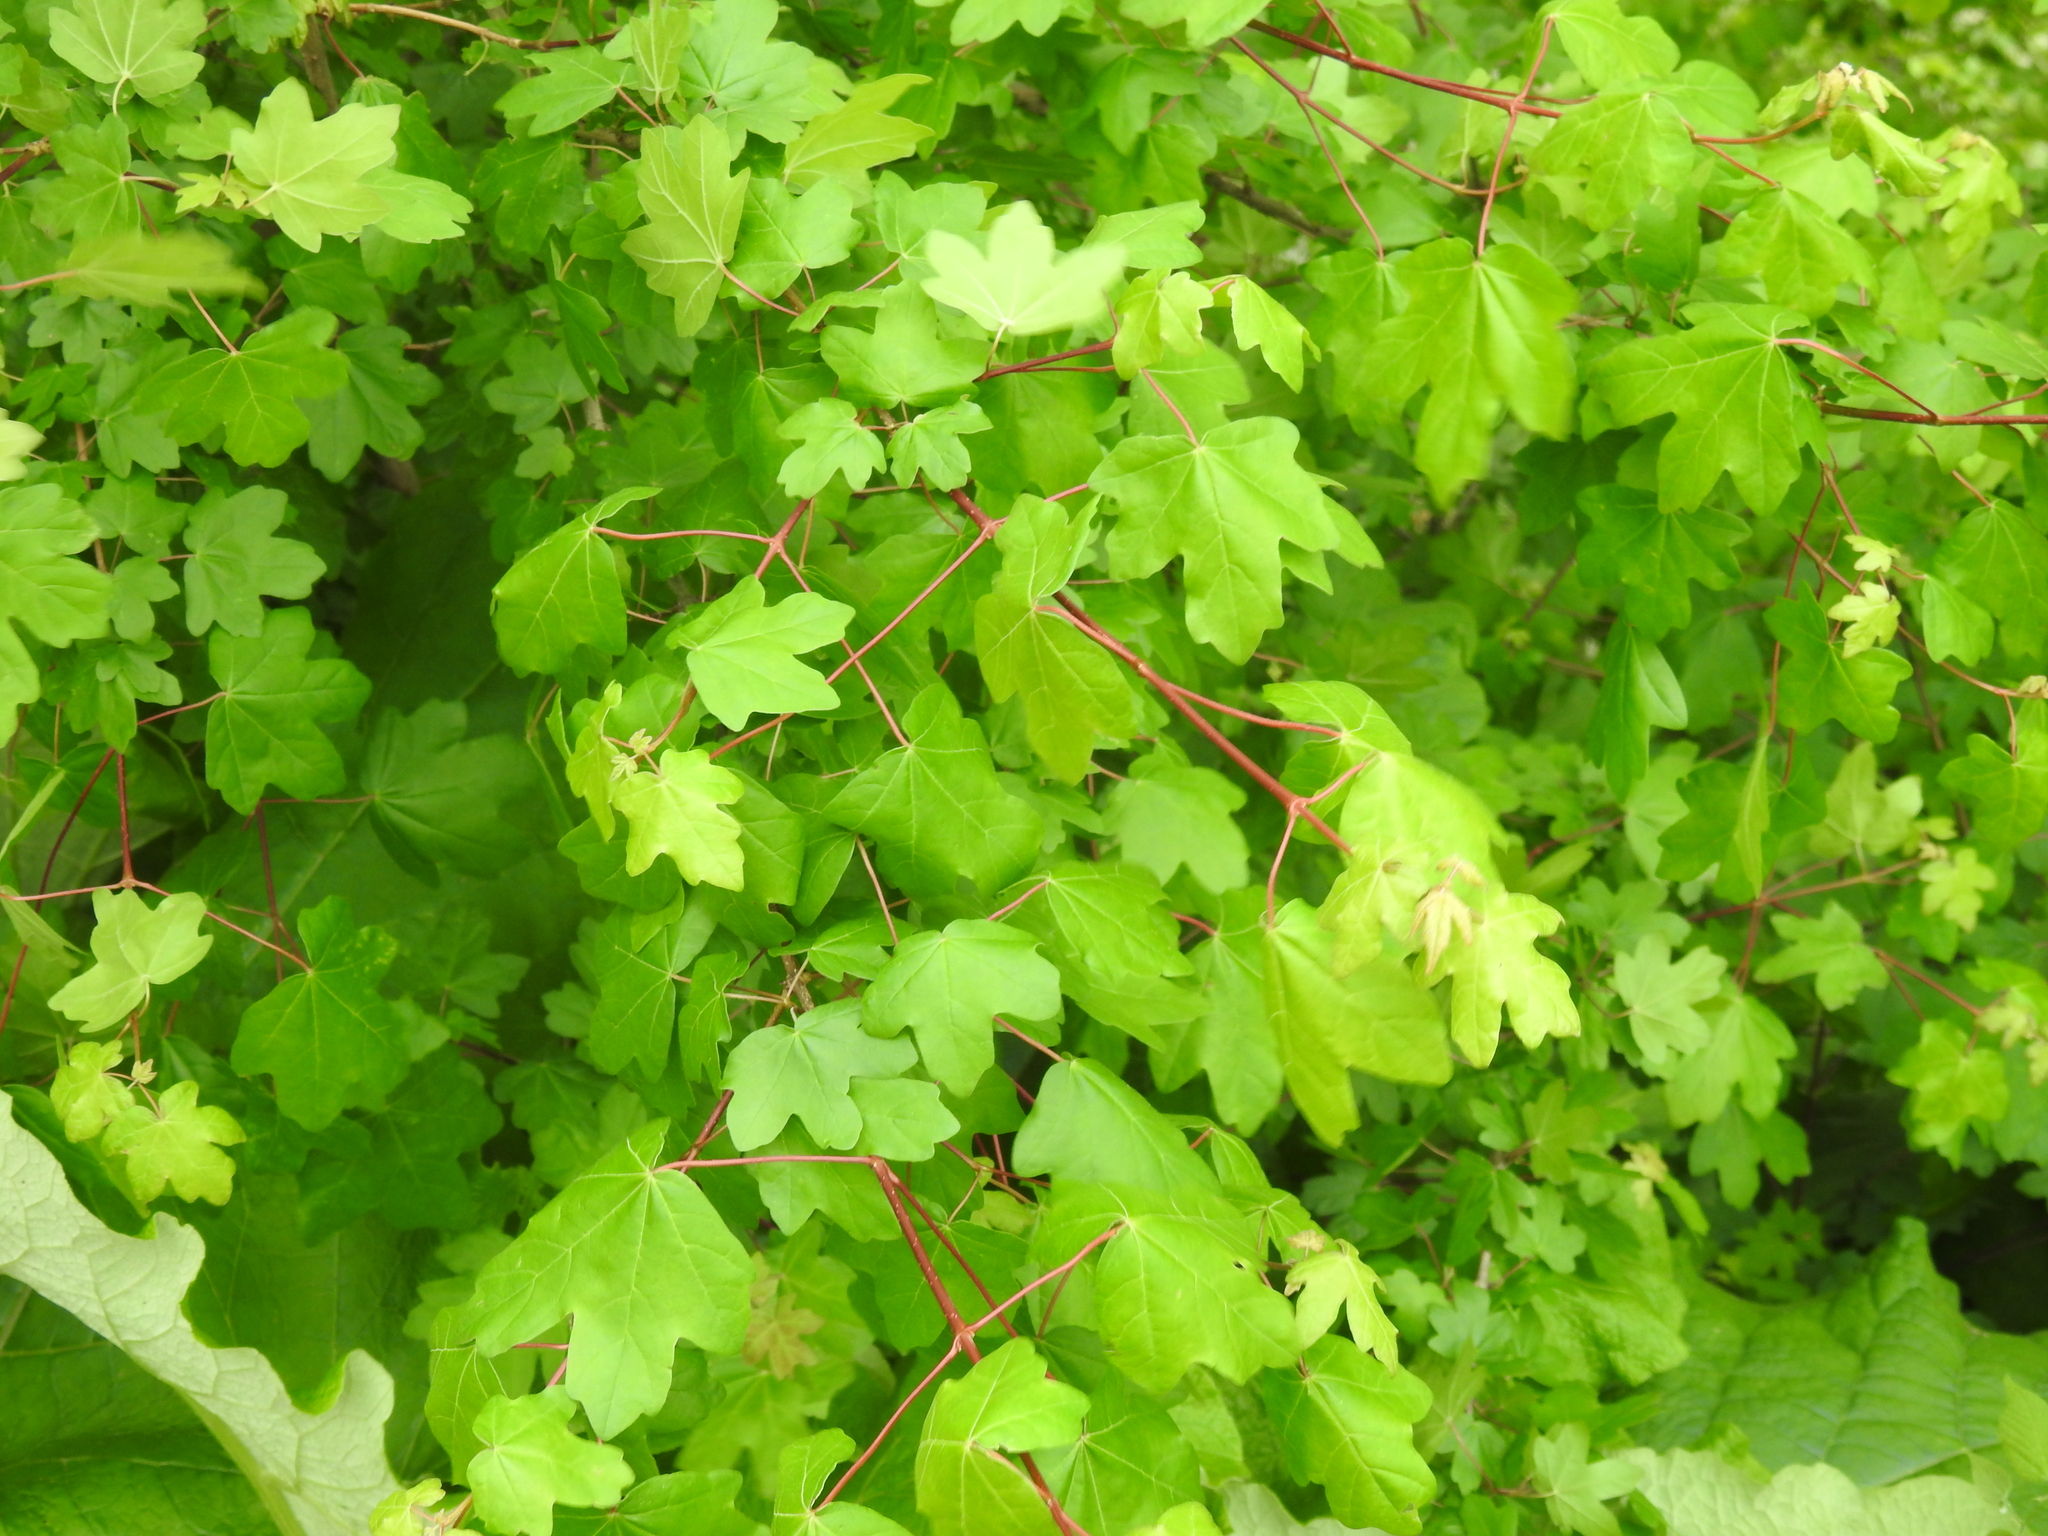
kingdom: Plantae
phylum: Tracheophyta
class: Magnoliopsida
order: Sapindales
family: Sapindaceae
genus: Acer
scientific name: Acer campestre
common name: Field maple
